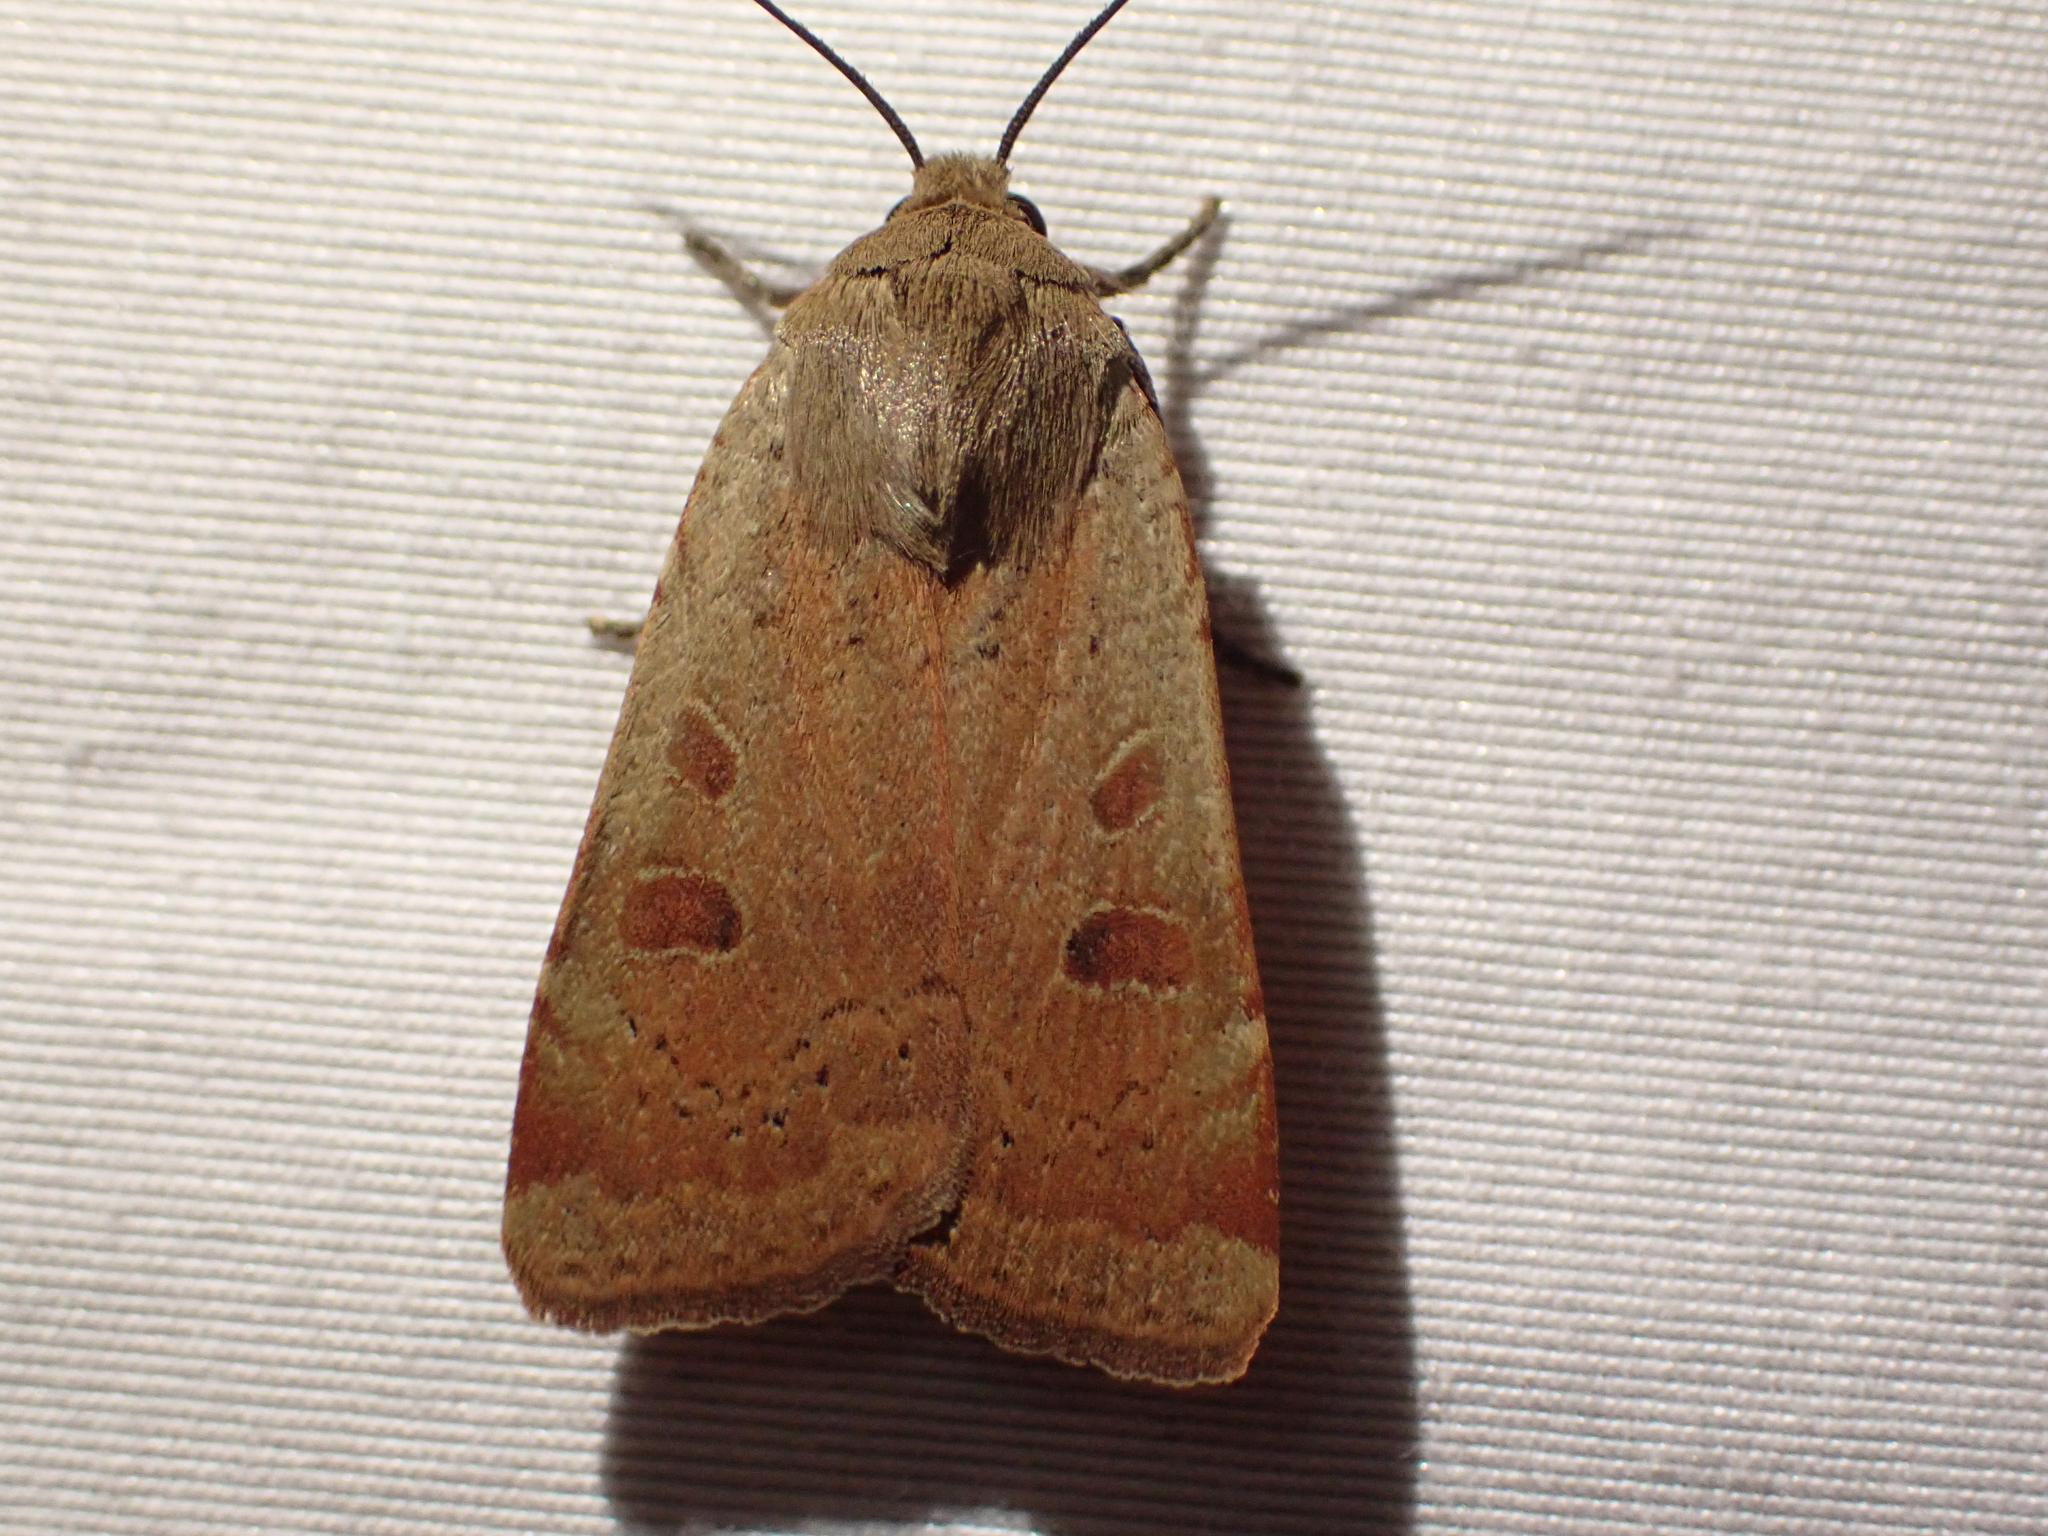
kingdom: Animalia
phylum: Arthropoda
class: Insecta
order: Lepidoptera
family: Noctuidae
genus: Noctua
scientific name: Noctua comes
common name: Lesser yellow underwing
